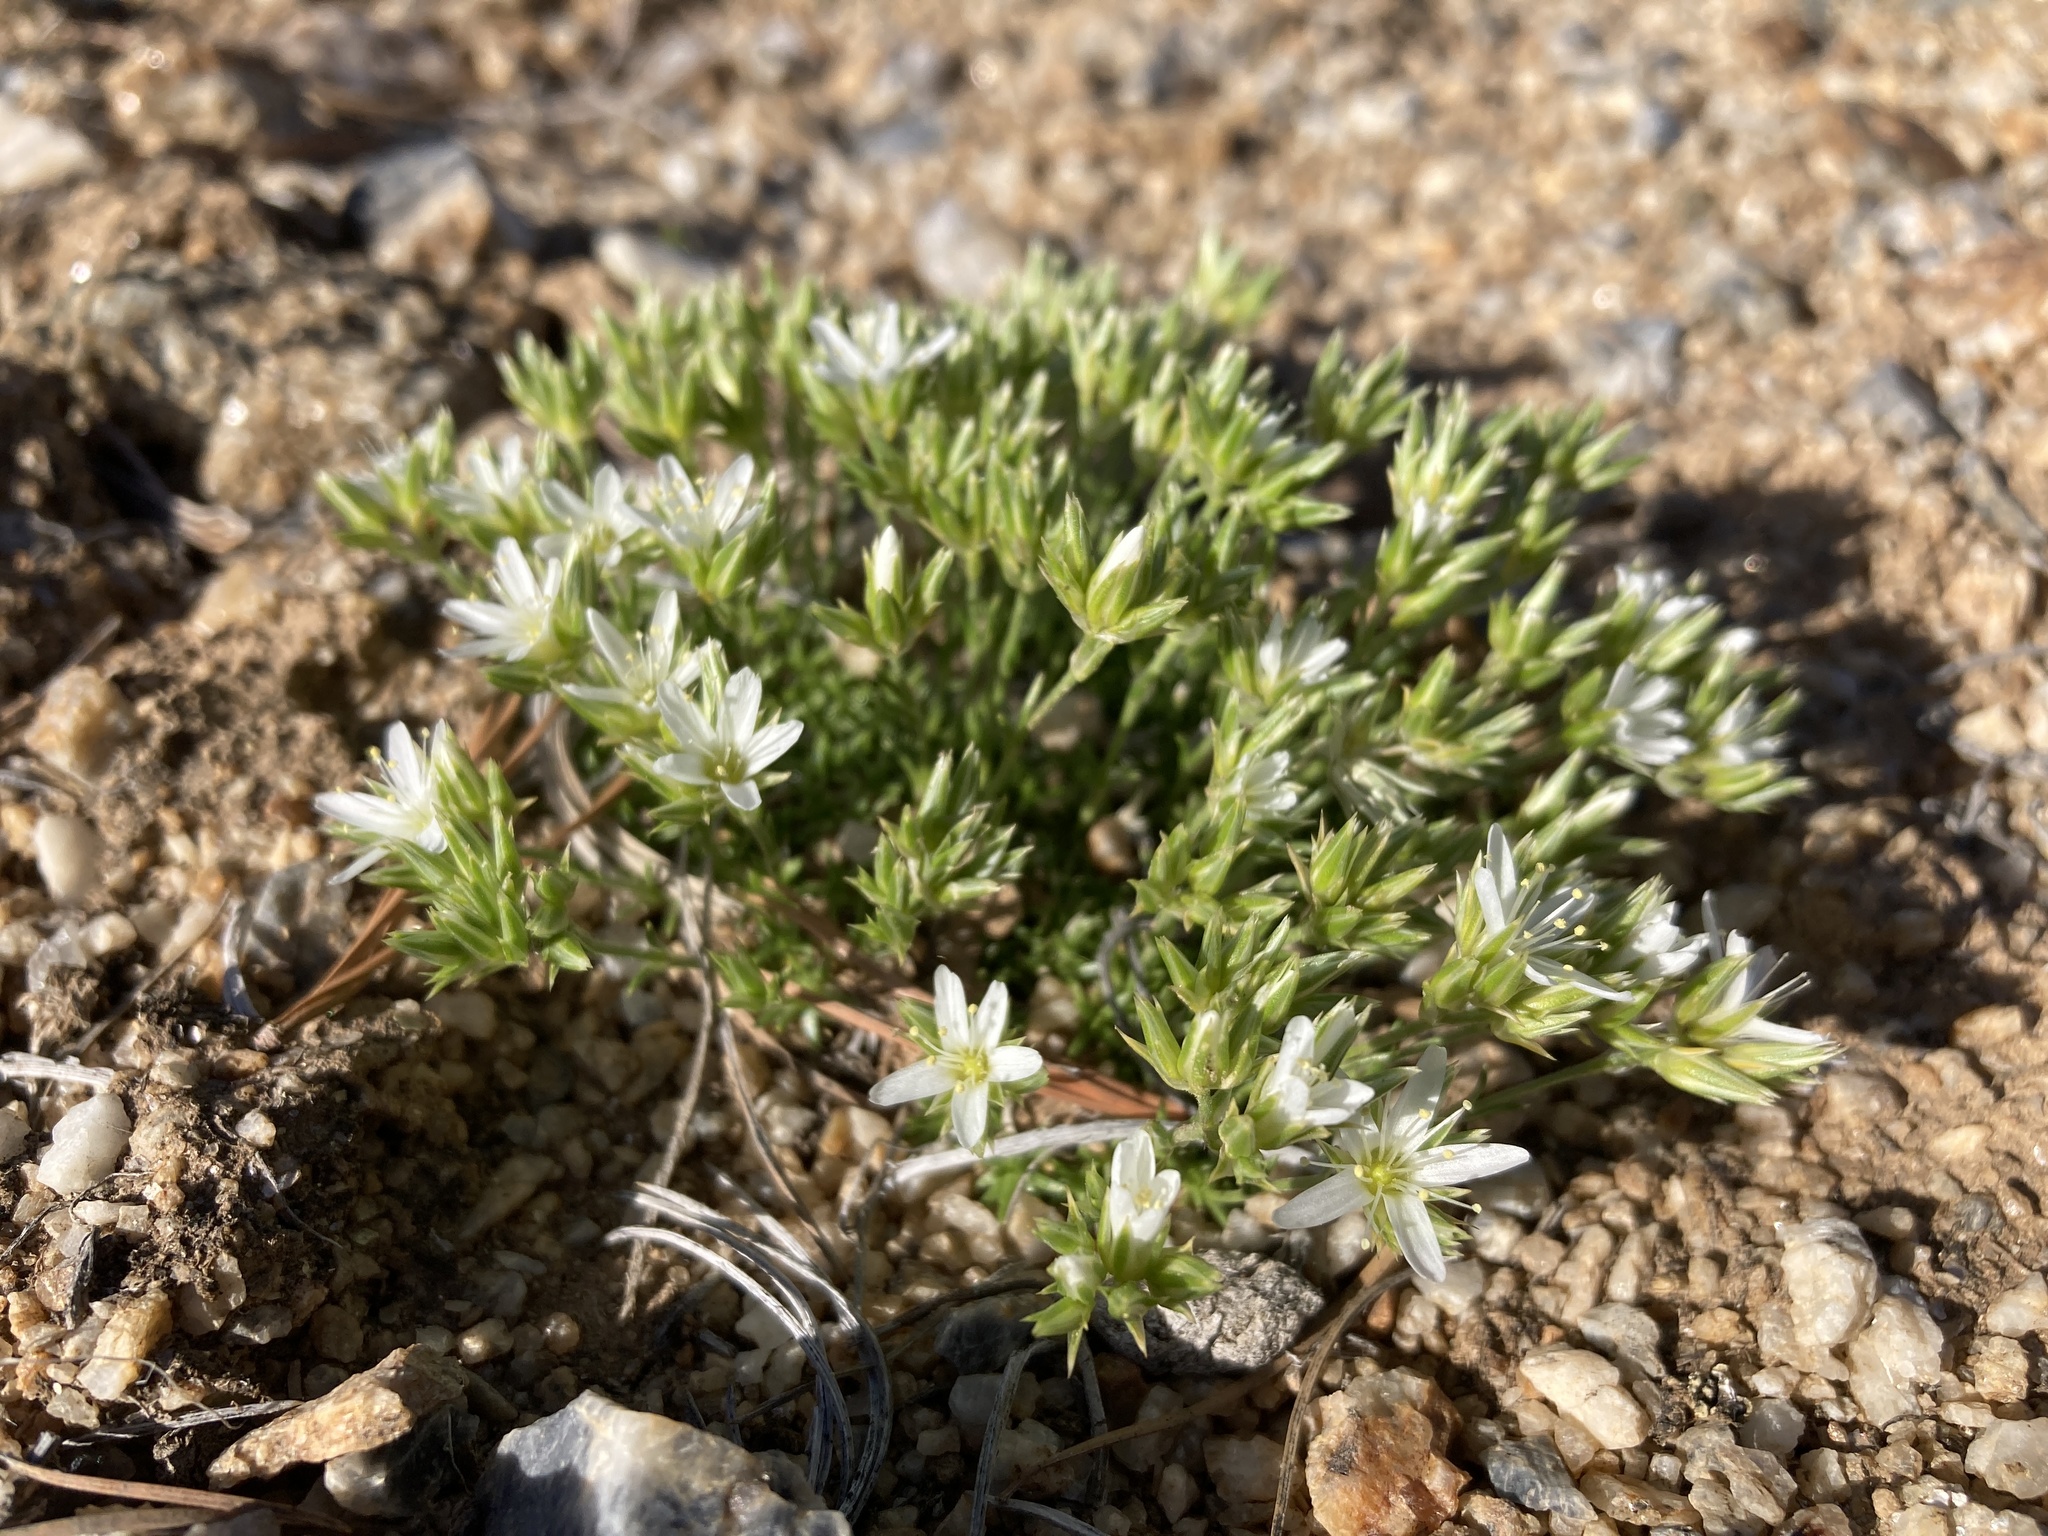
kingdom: Plantae
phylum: Tracheophyta
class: Magnoliopsida
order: Caryophyllales
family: Caryophyllaceae
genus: Eremogone
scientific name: Eremogone hookeri
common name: Hooker's sandwort
